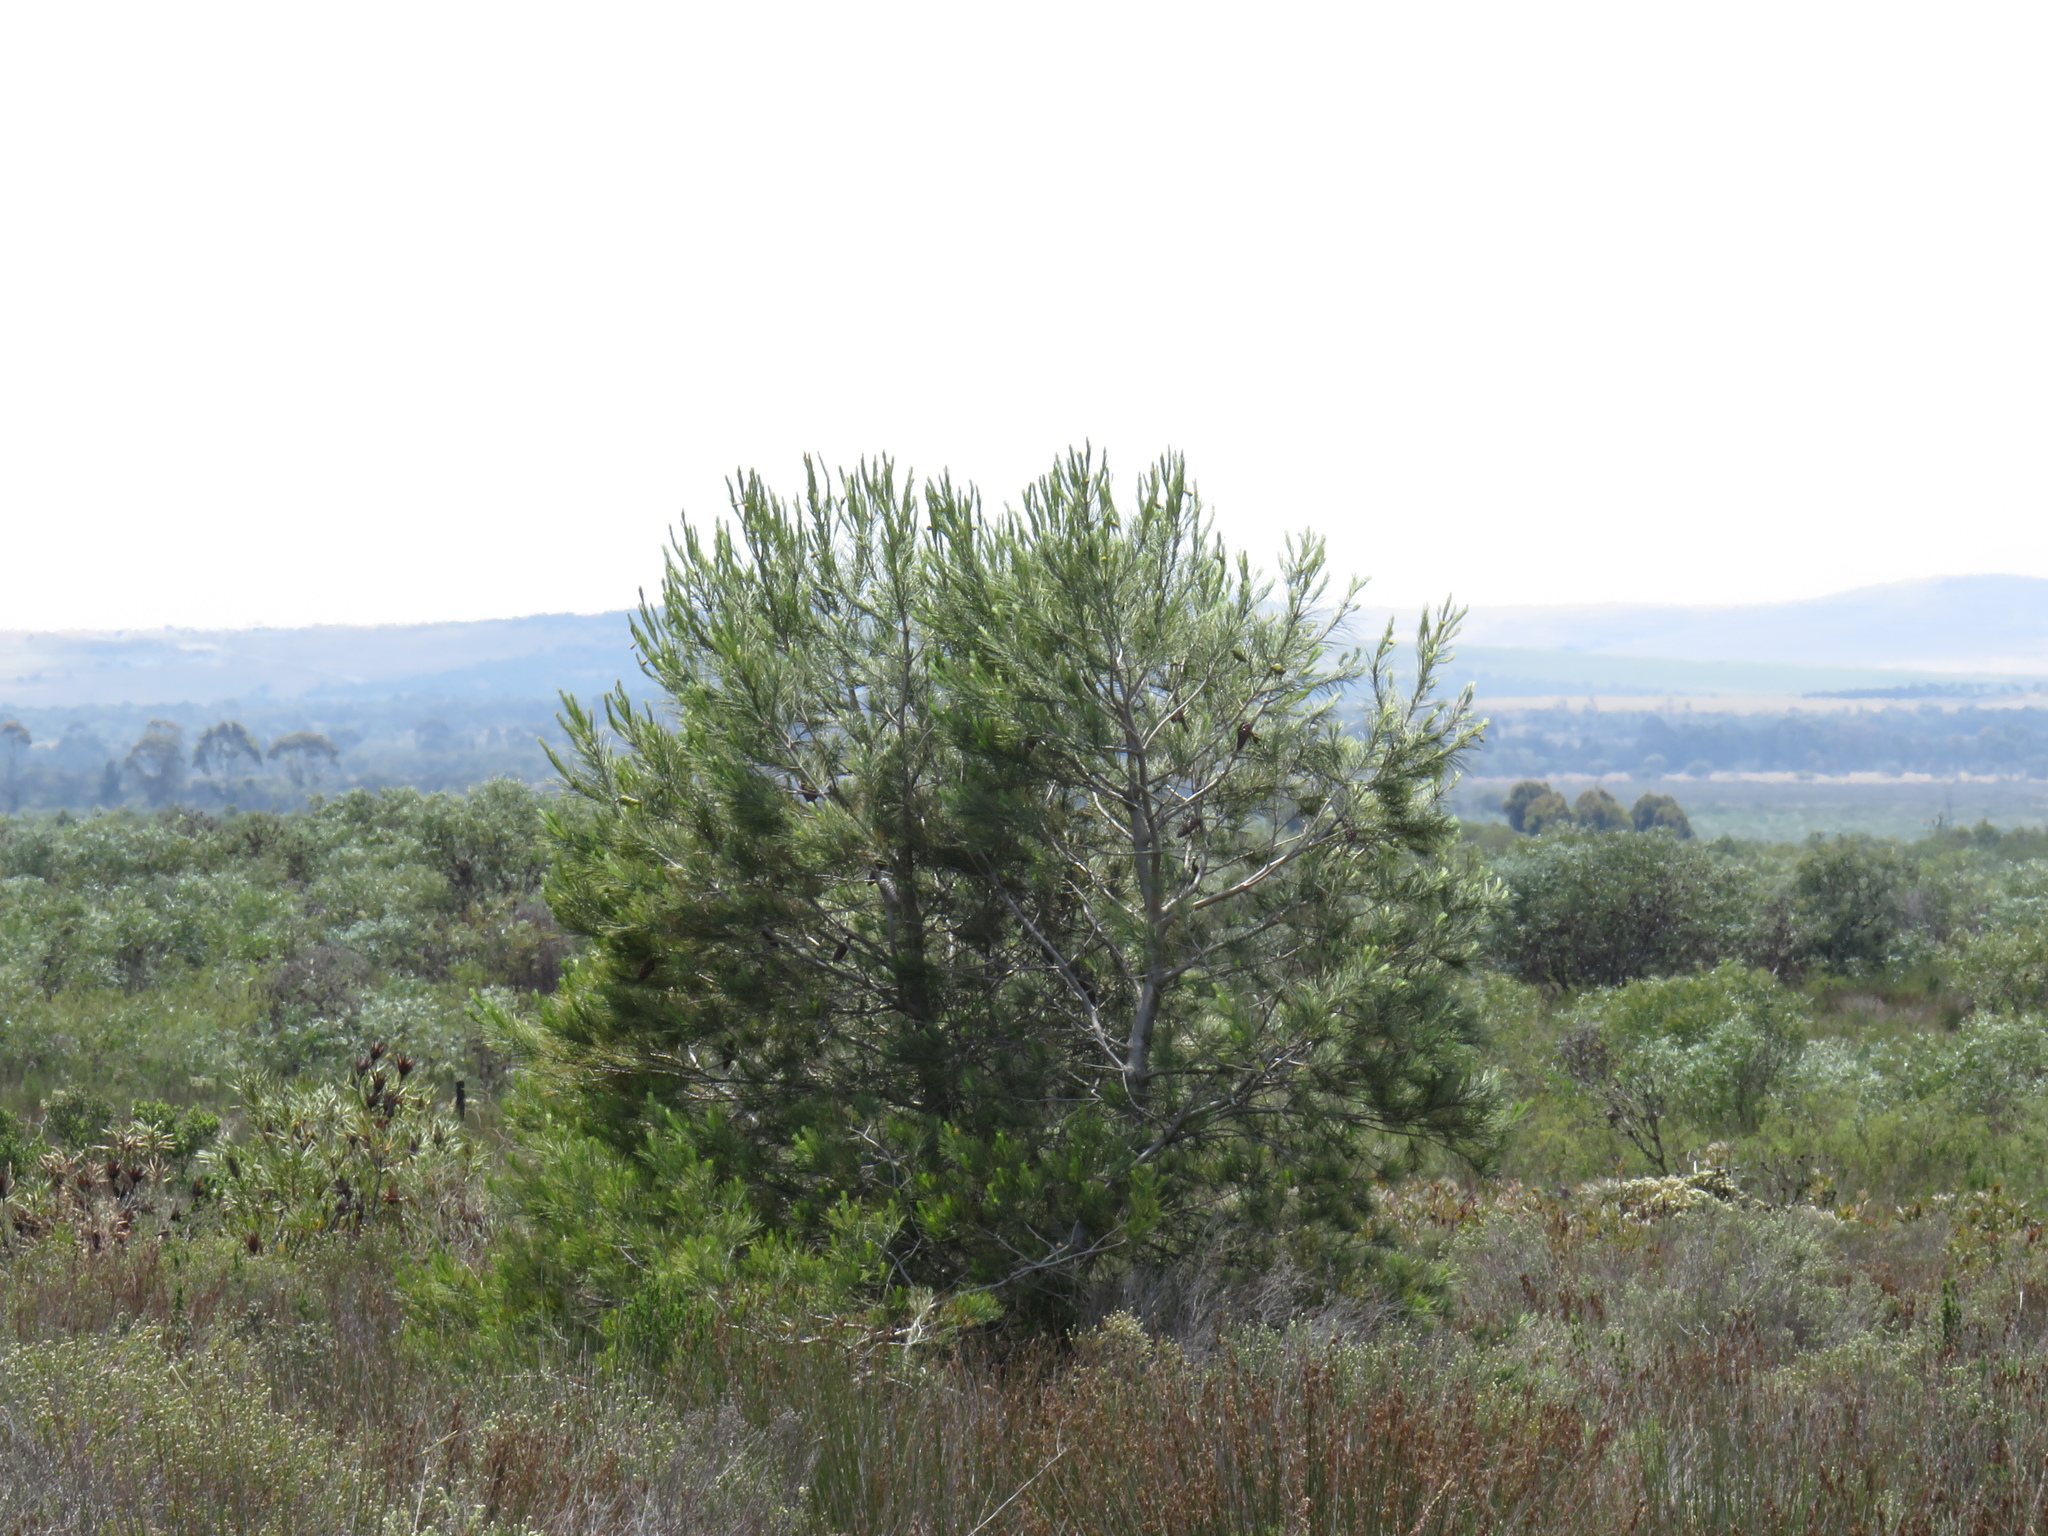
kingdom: Plantae
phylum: Tracheophyta
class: Pinopsida
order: Pinales
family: Pinaceae
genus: Pinus
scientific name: Pinus halepensis
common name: Aleppo pine
